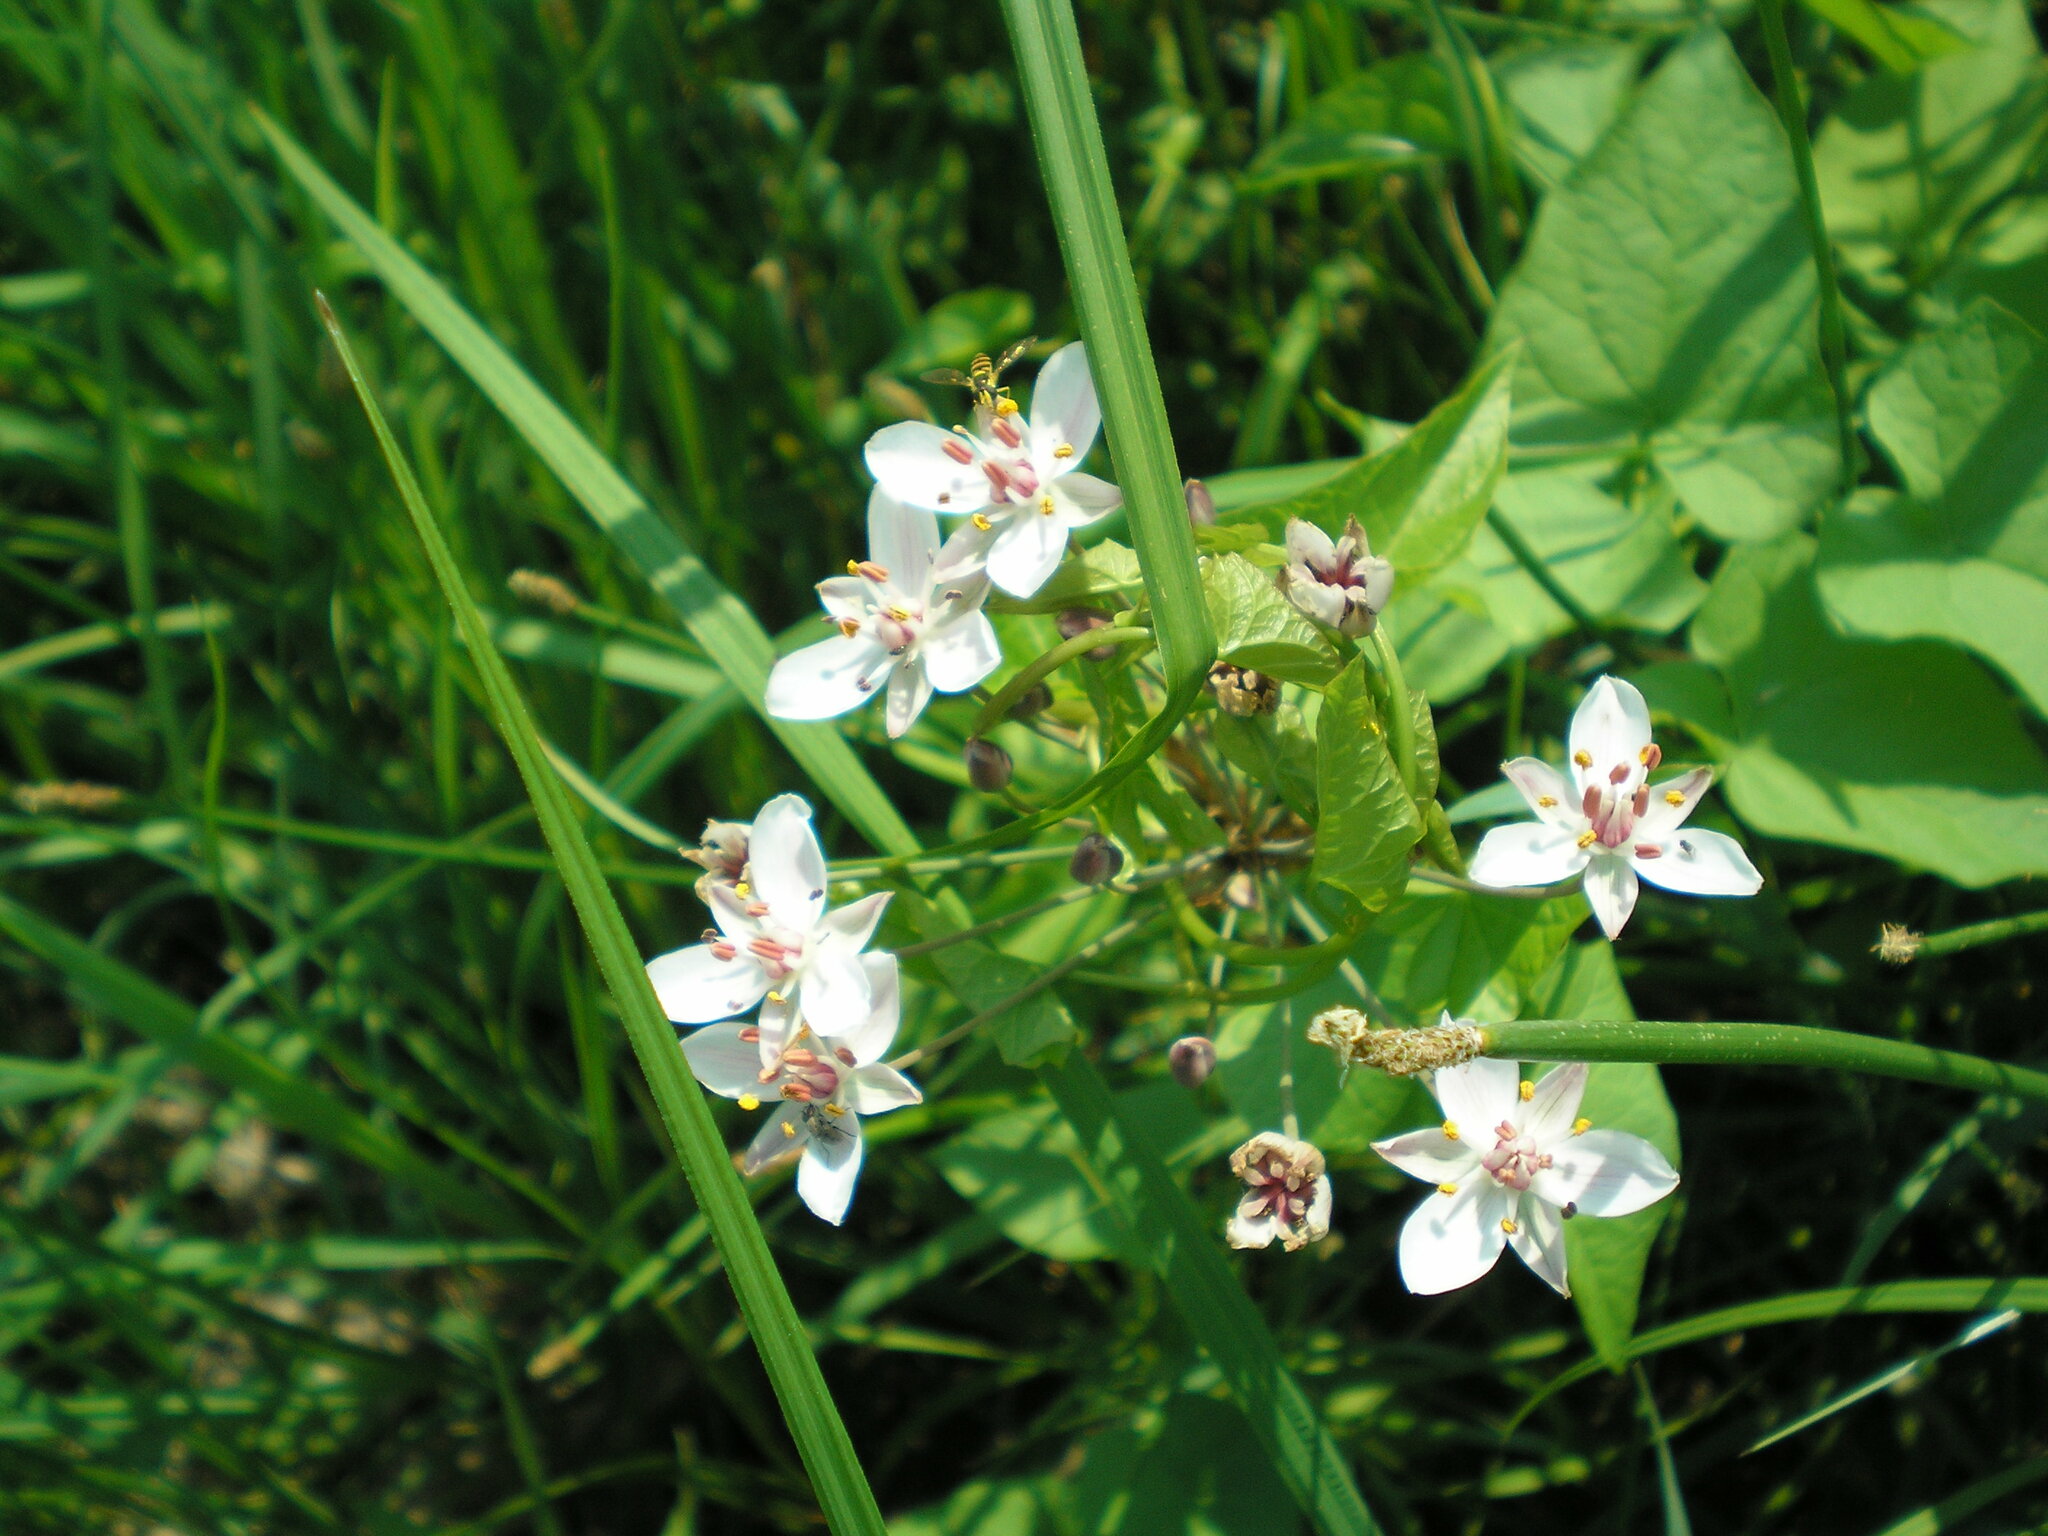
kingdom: Plantae
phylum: Tracheophyta
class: Liliopsida
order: Alismatales
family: Butomaceae
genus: Butomus
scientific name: Butomus umbellatus
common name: Flowering-rush
